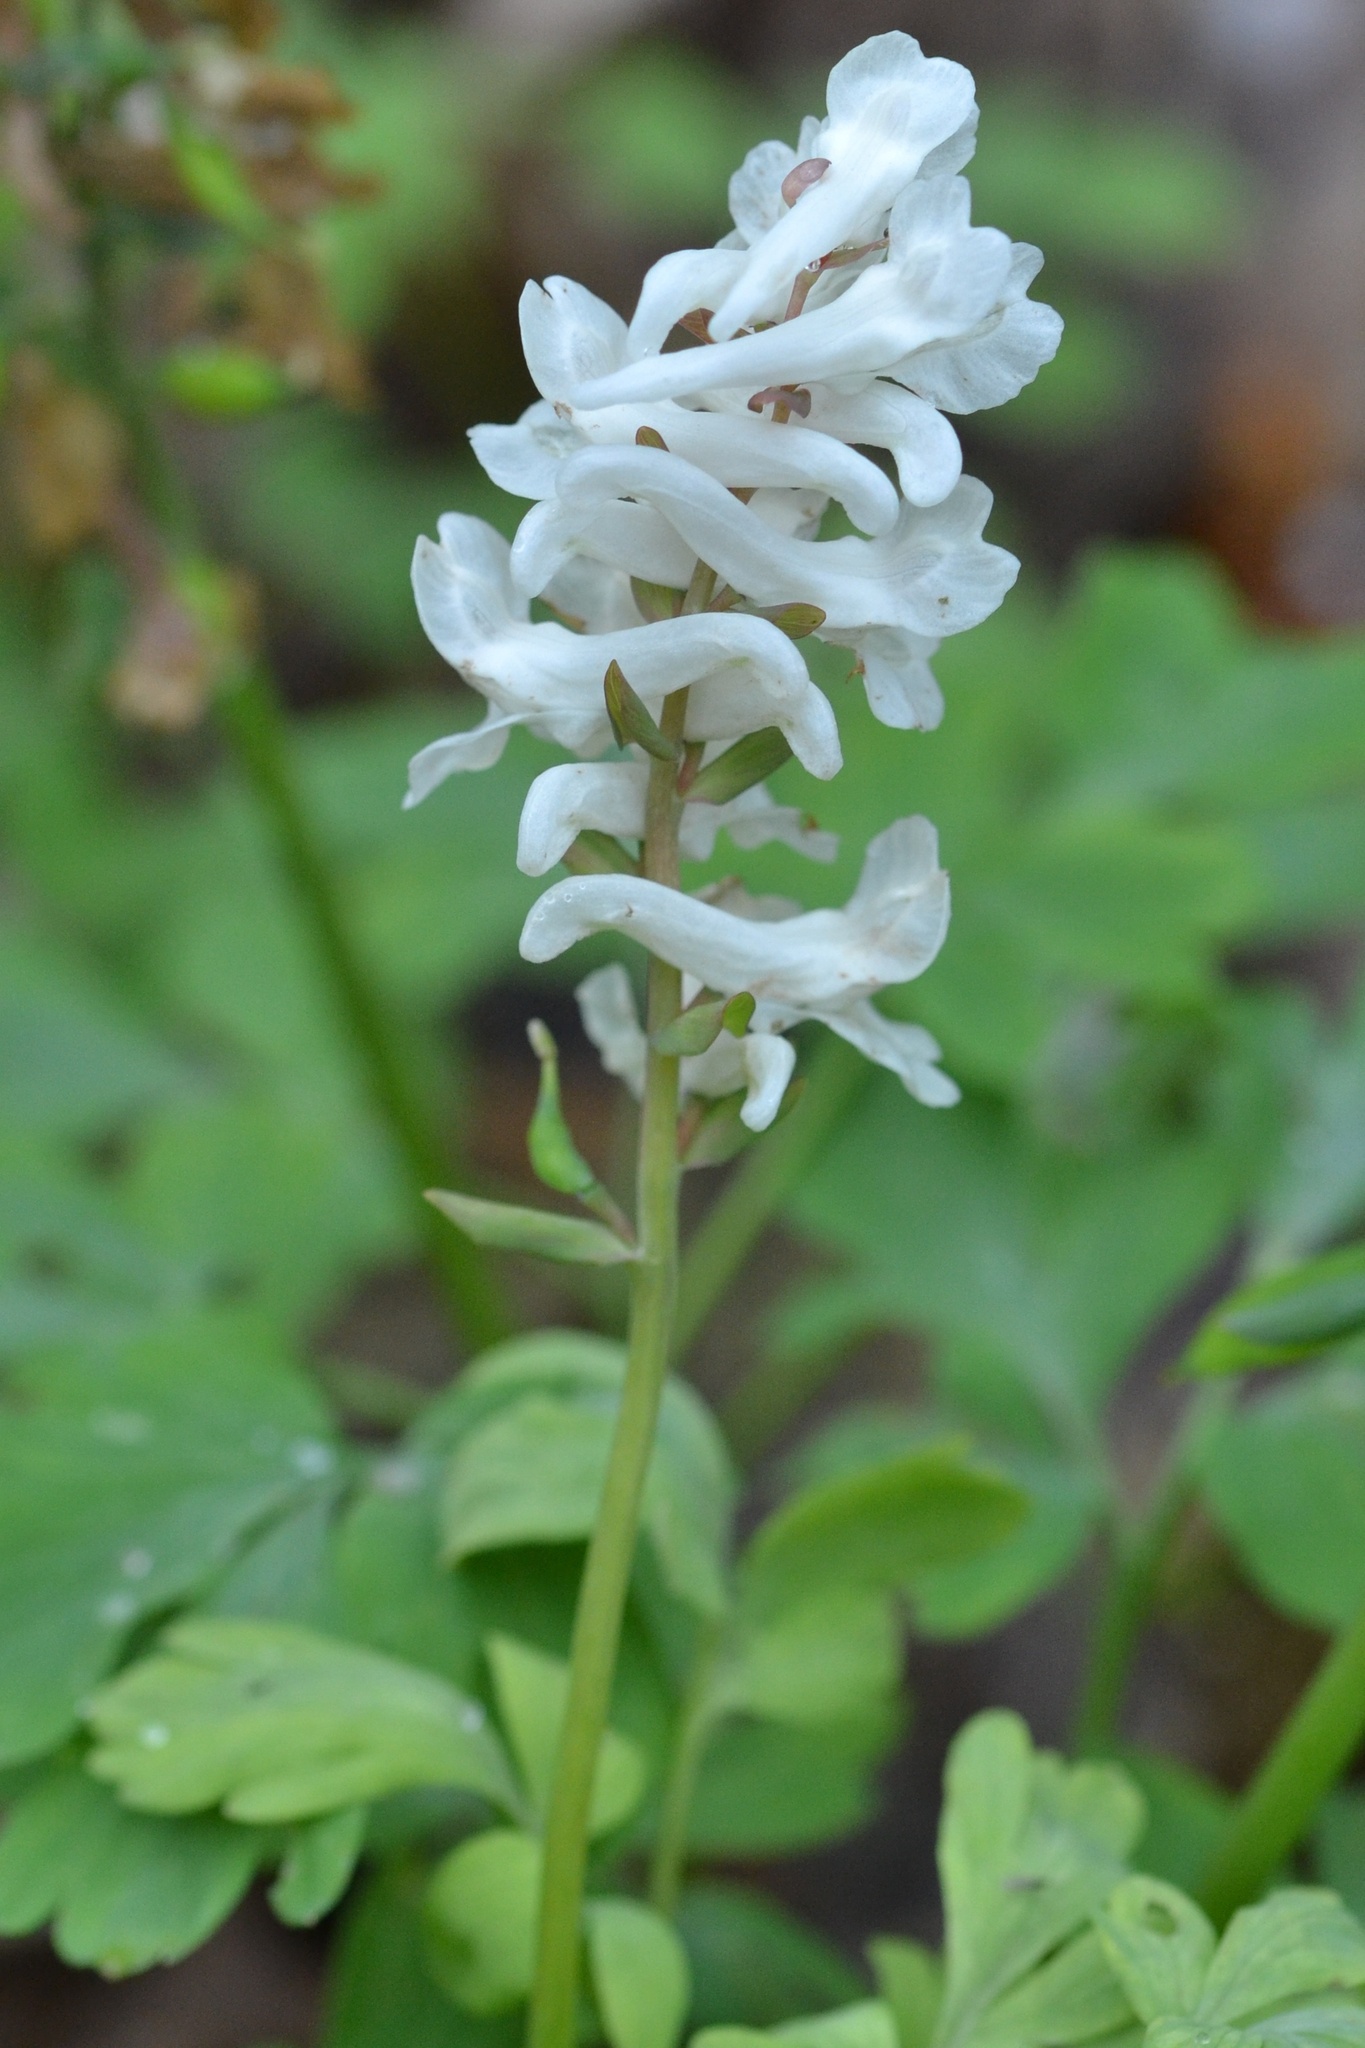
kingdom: Plantae
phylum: Tracheophyta
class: Magnoliopsida
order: Ranunculales
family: Papaveraceae
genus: Corydalis
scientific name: Corydalis cava
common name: Hollowroot
